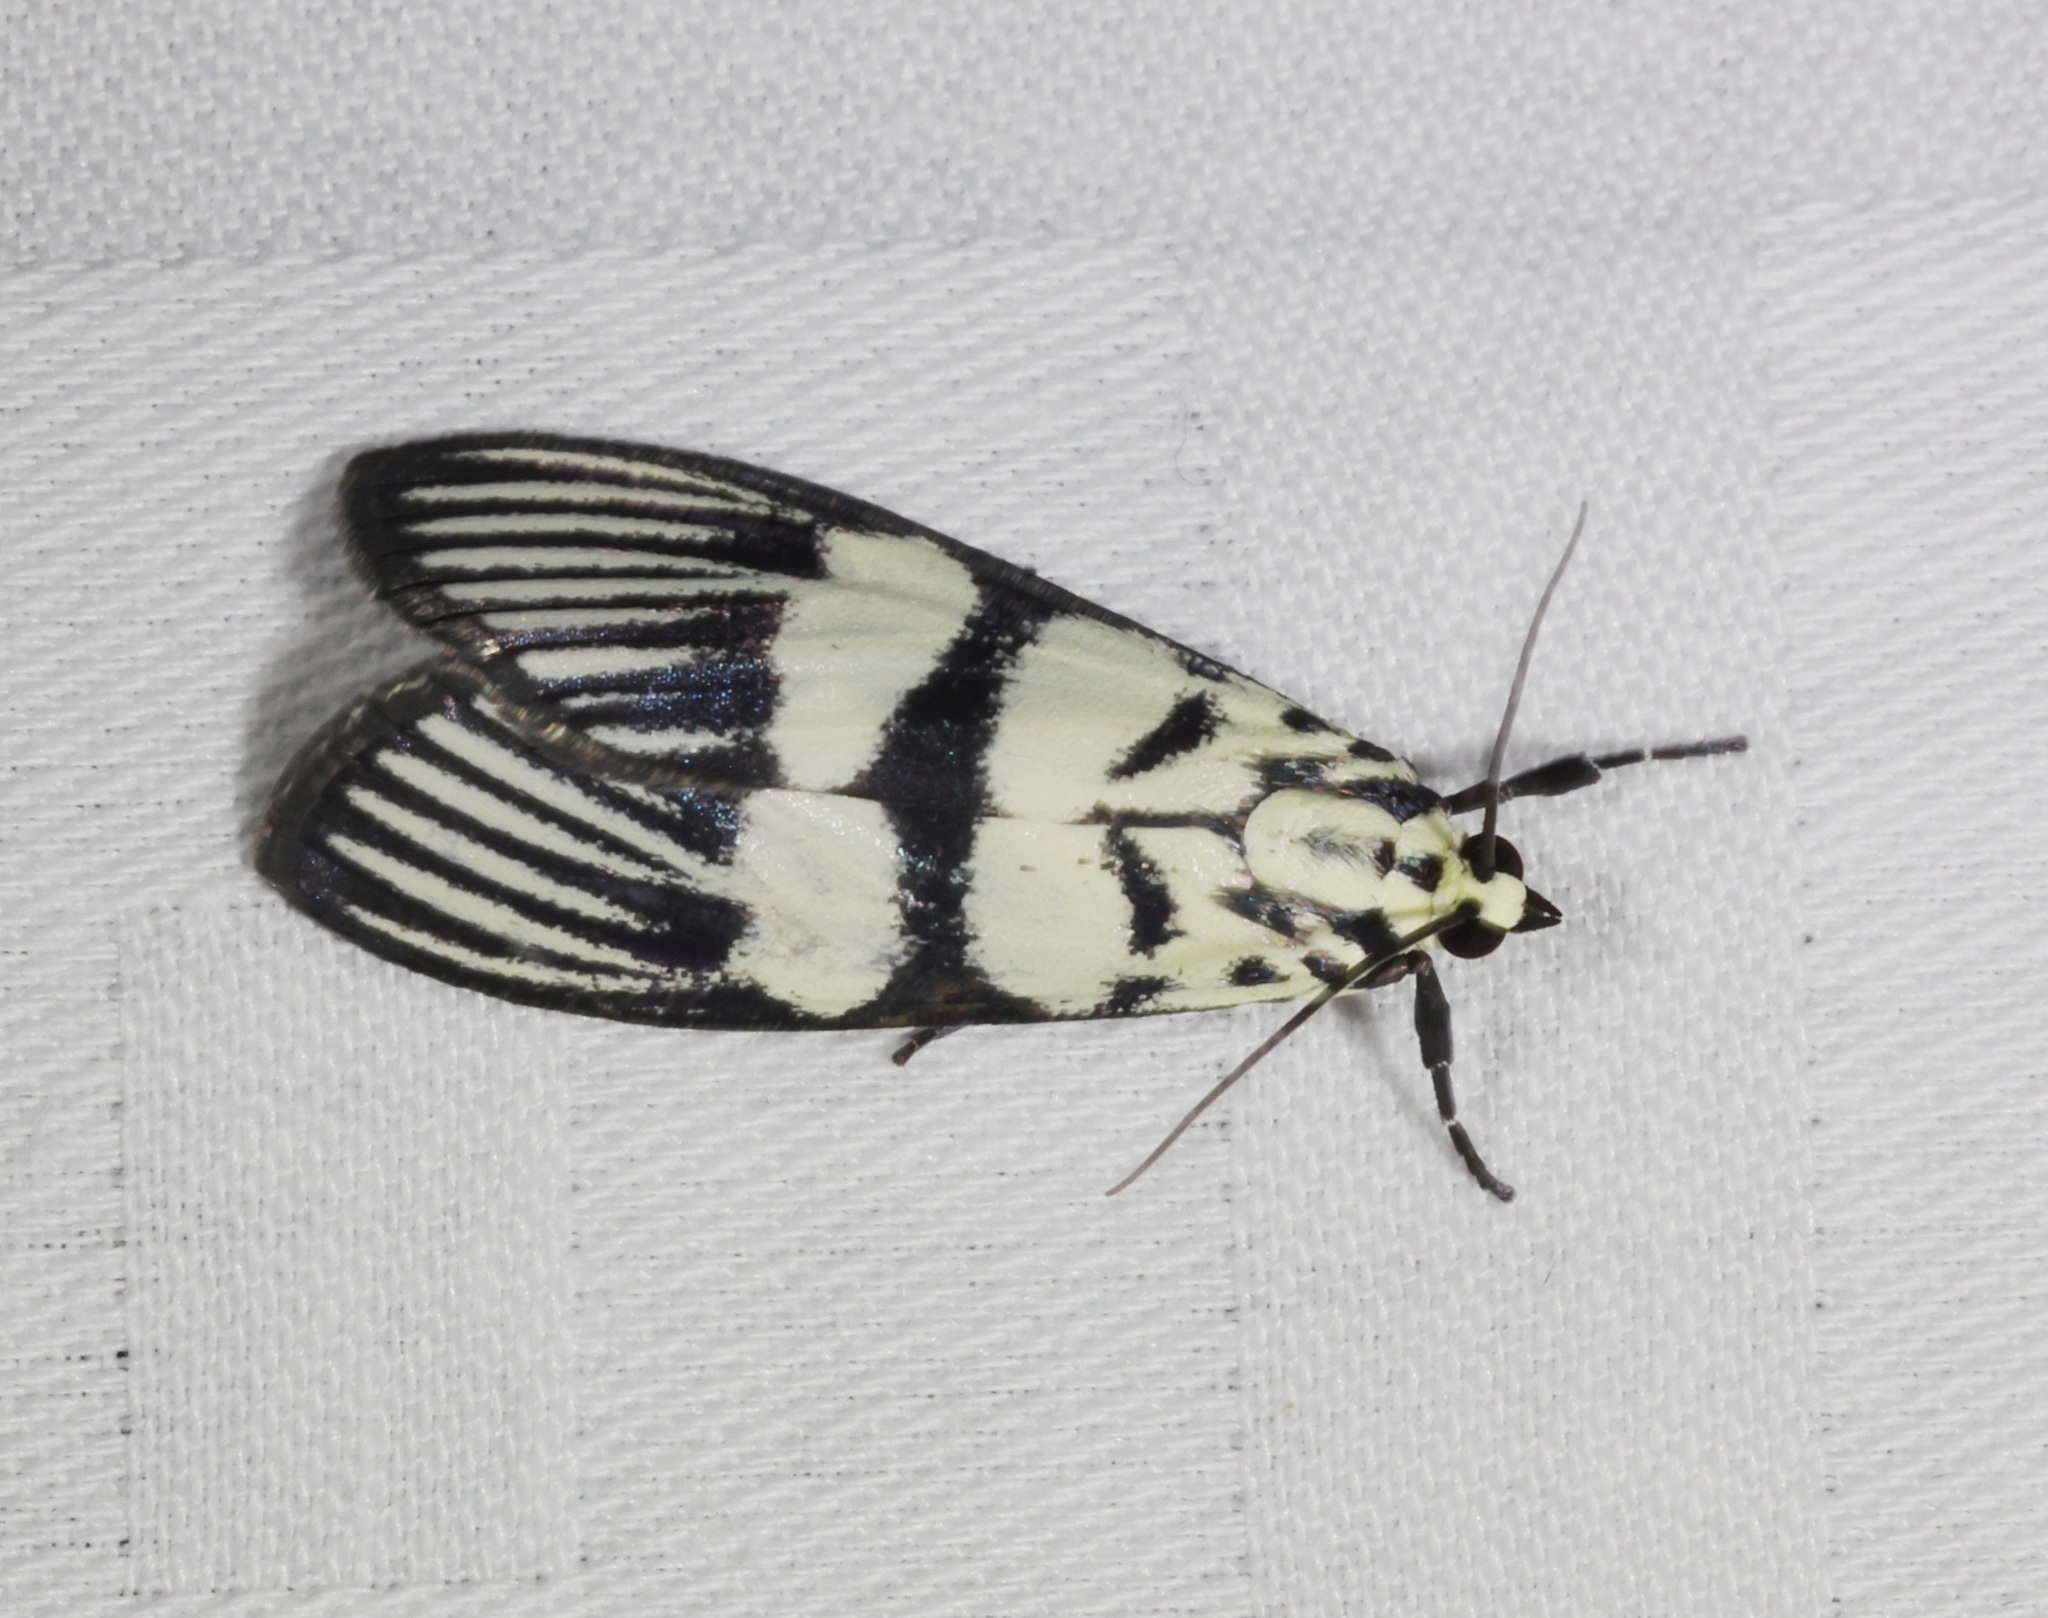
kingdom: Animalia
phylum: Arthropoda
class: Insecta
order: Lepidoptera
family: Crambidae
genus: Heortia
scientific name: Heortia vitessoides
